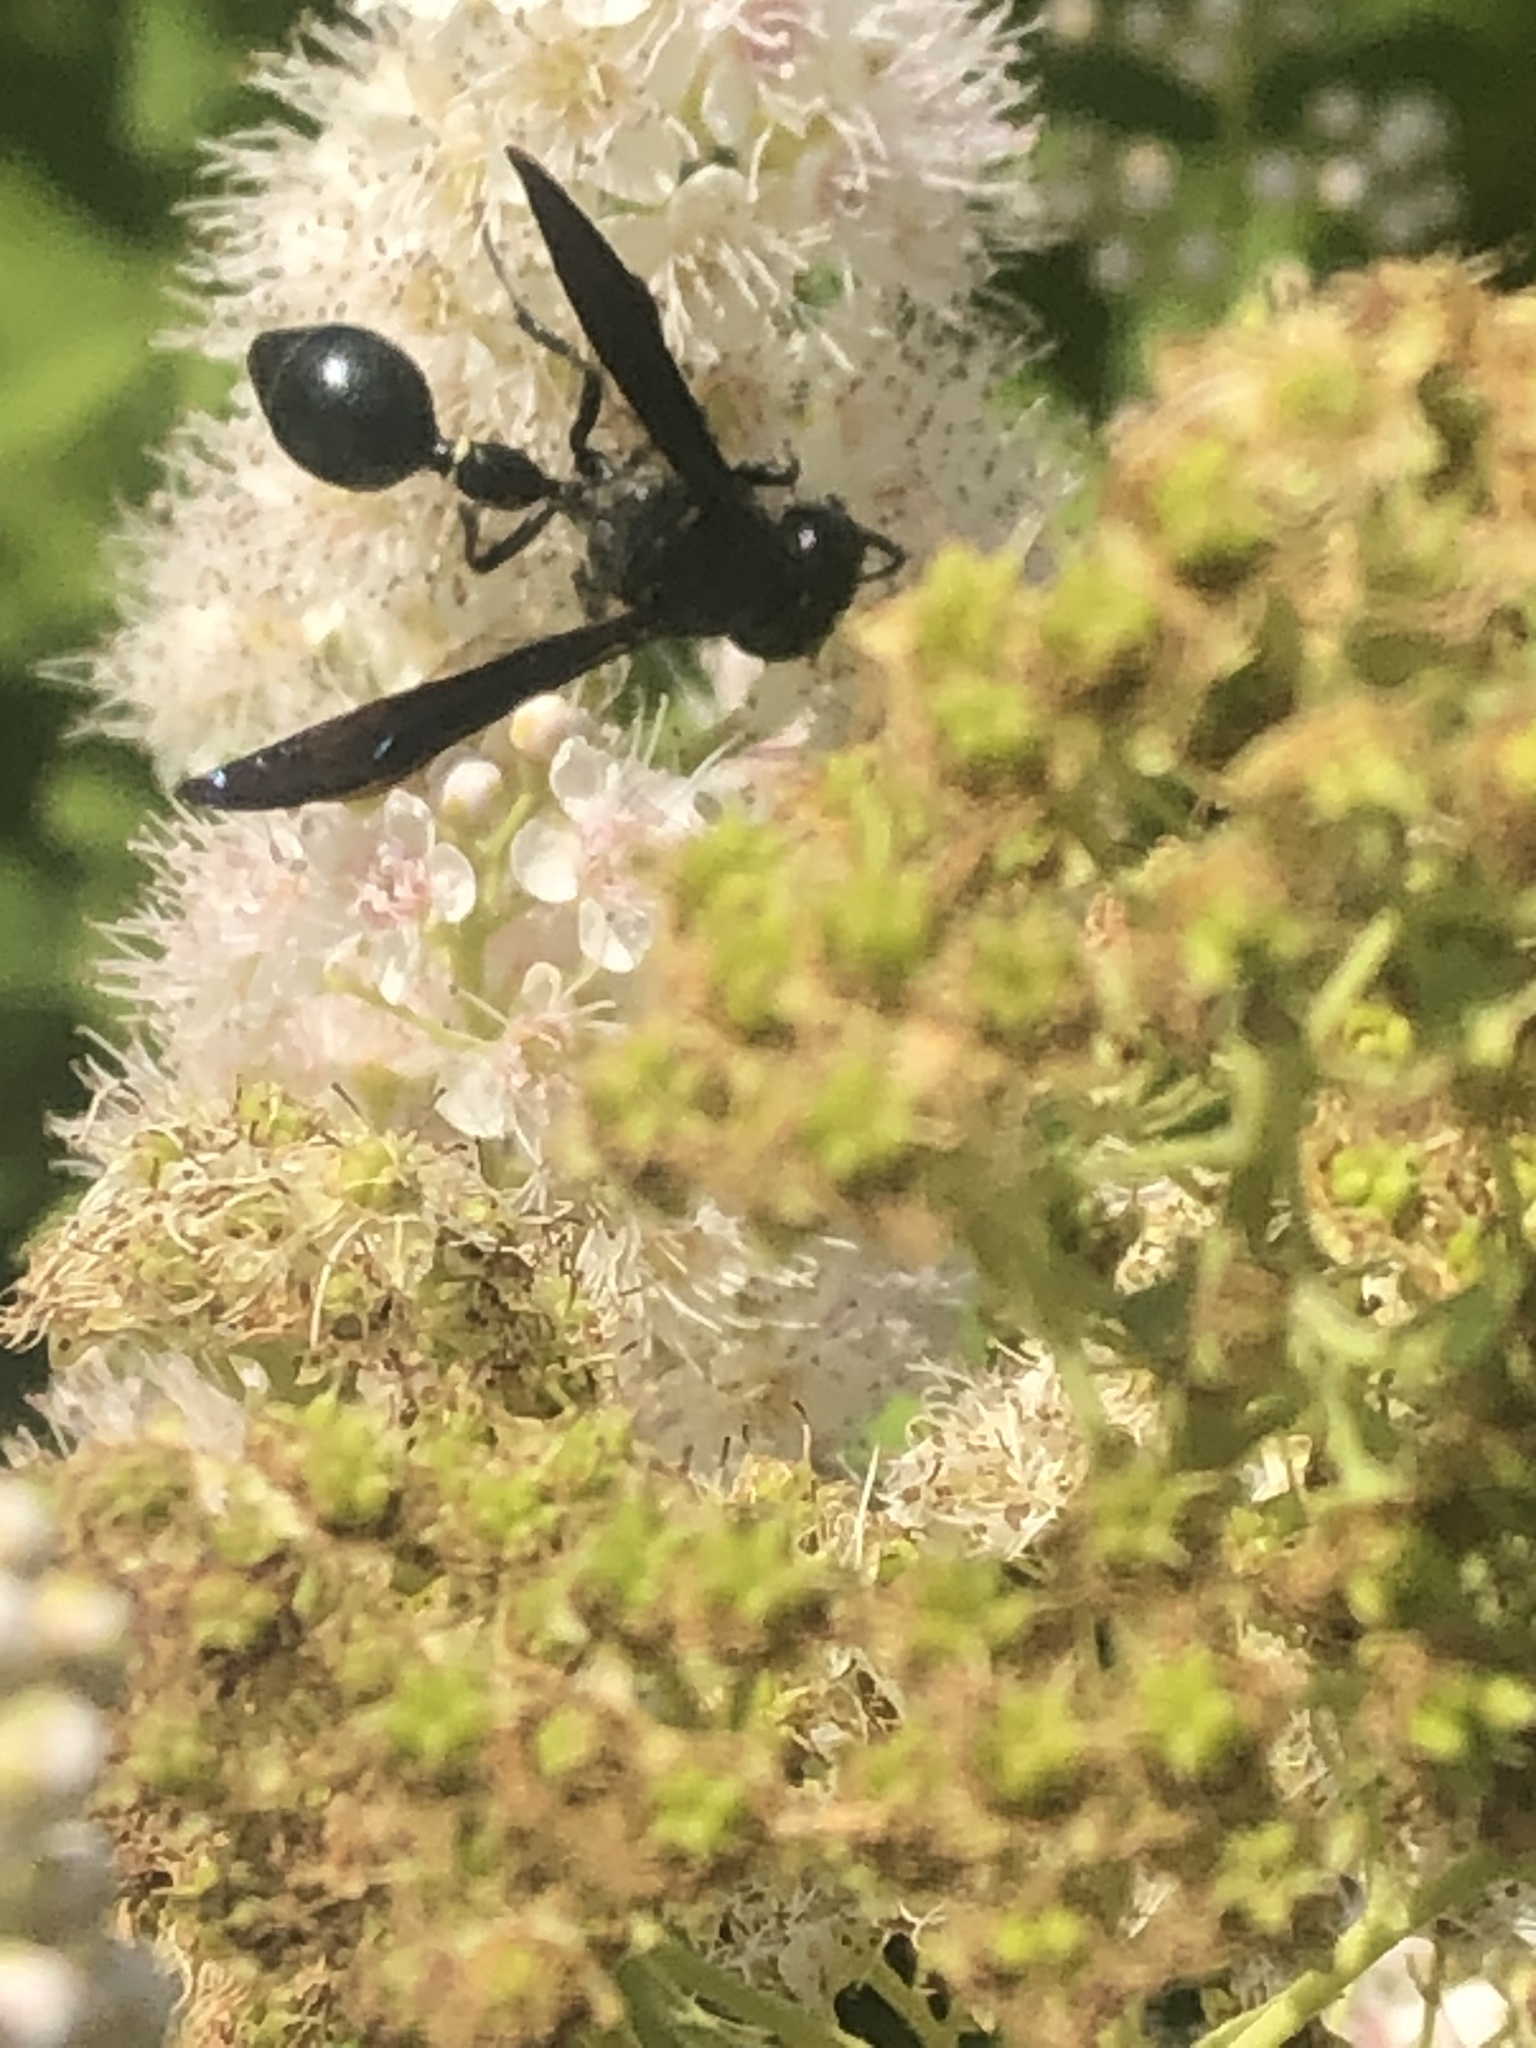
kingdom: Animalia
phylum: Arthropoda
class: Insecta
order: Hymenoptera
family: Eumenidae
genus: Zethus
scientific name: Zethus spinipes
